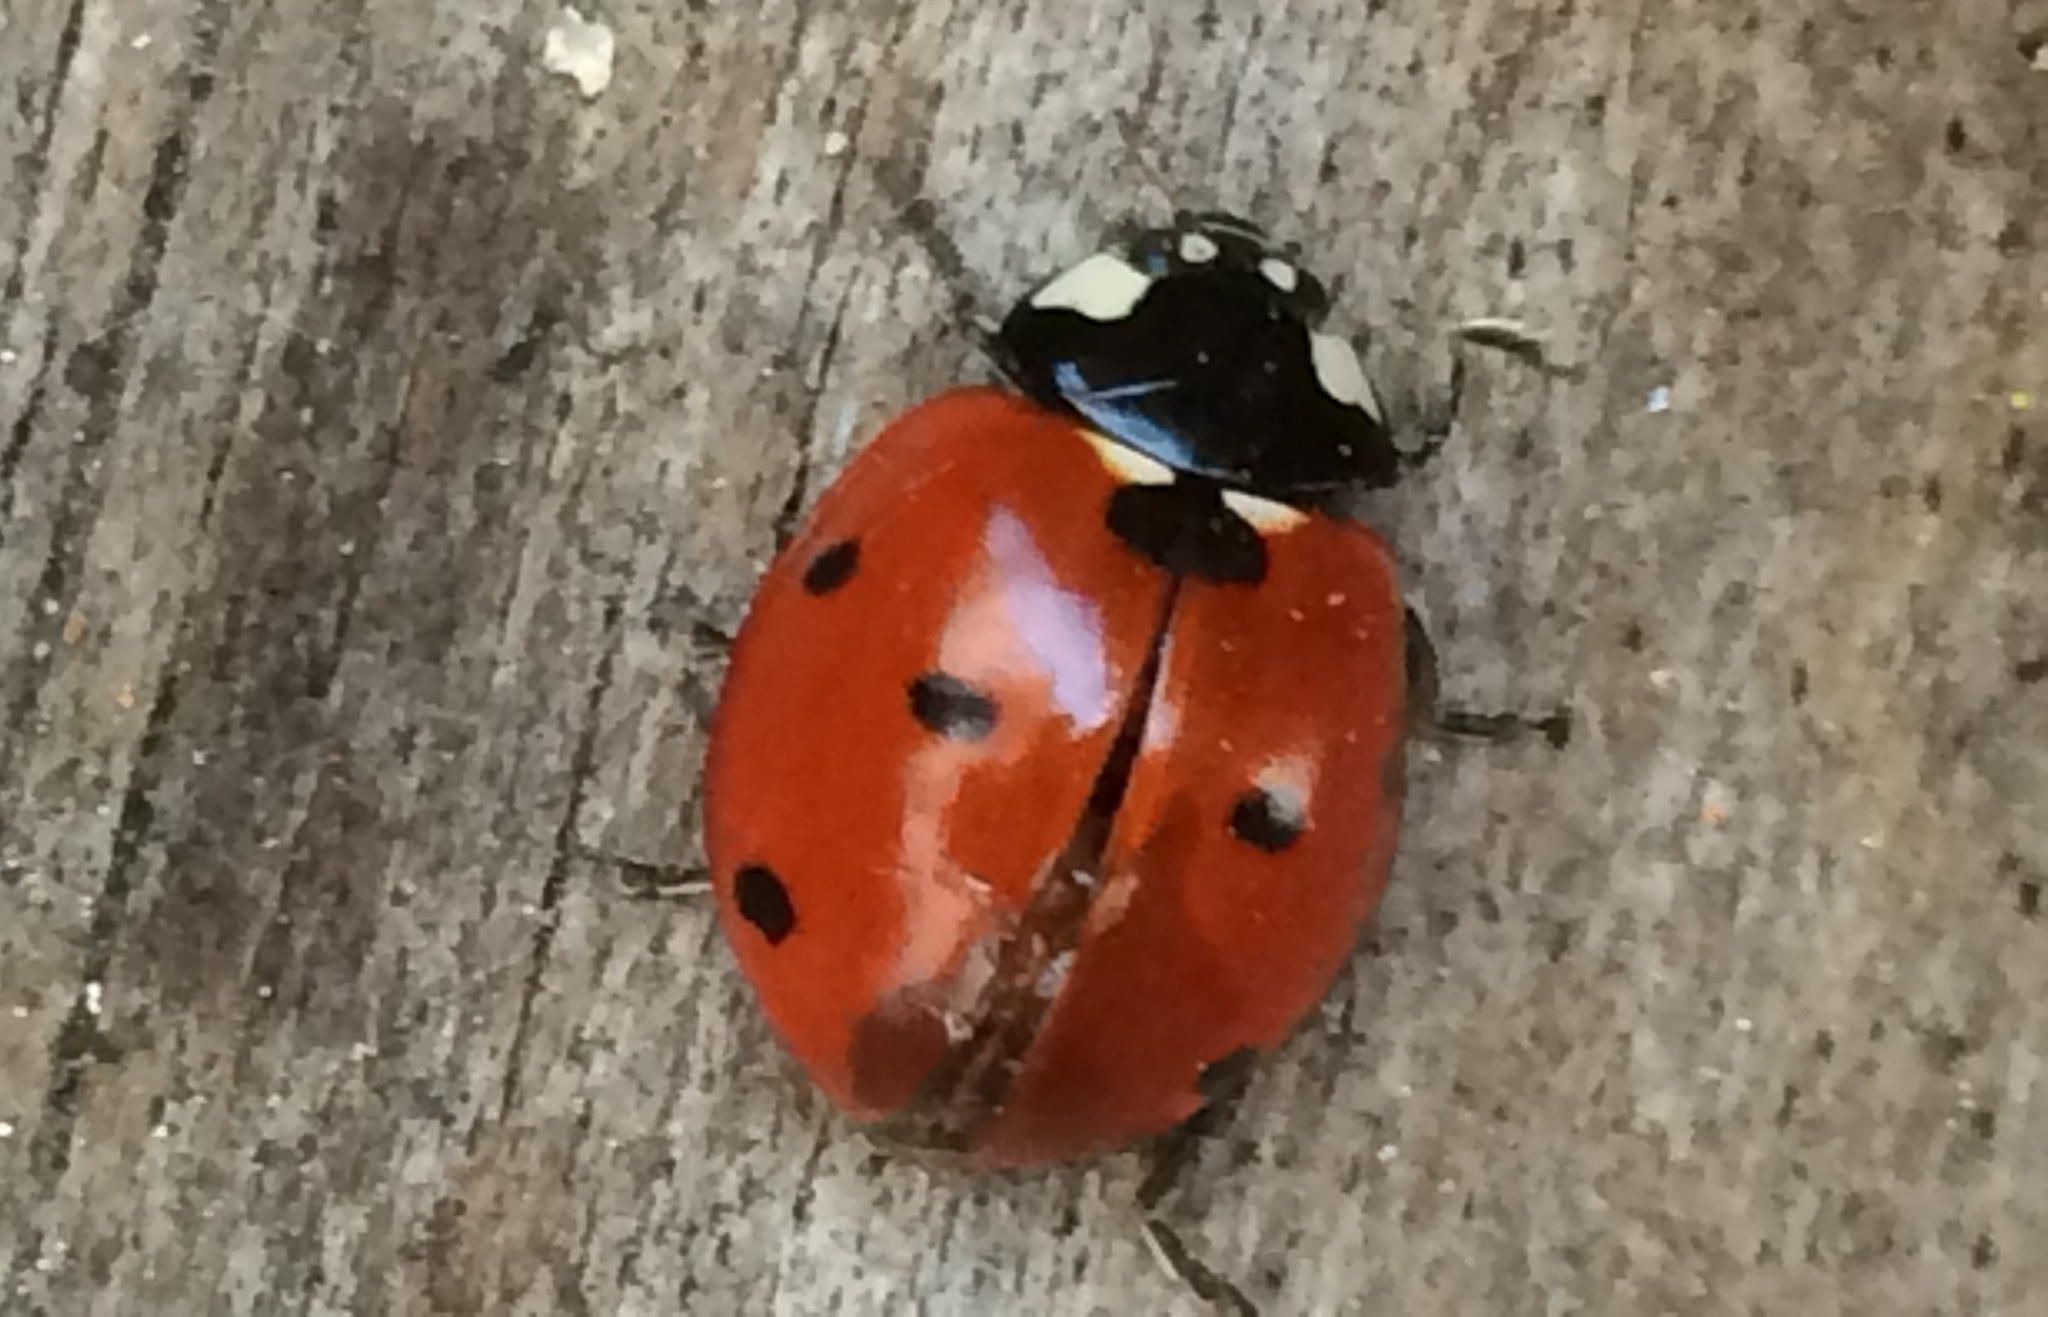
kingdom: Animalia
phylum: Arthropoda
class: Insecta
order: Coleoptera
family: Coccinellidae
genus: Coccinella
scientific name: Coccinella septempunctata
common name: Sevenspotted lady beetle
